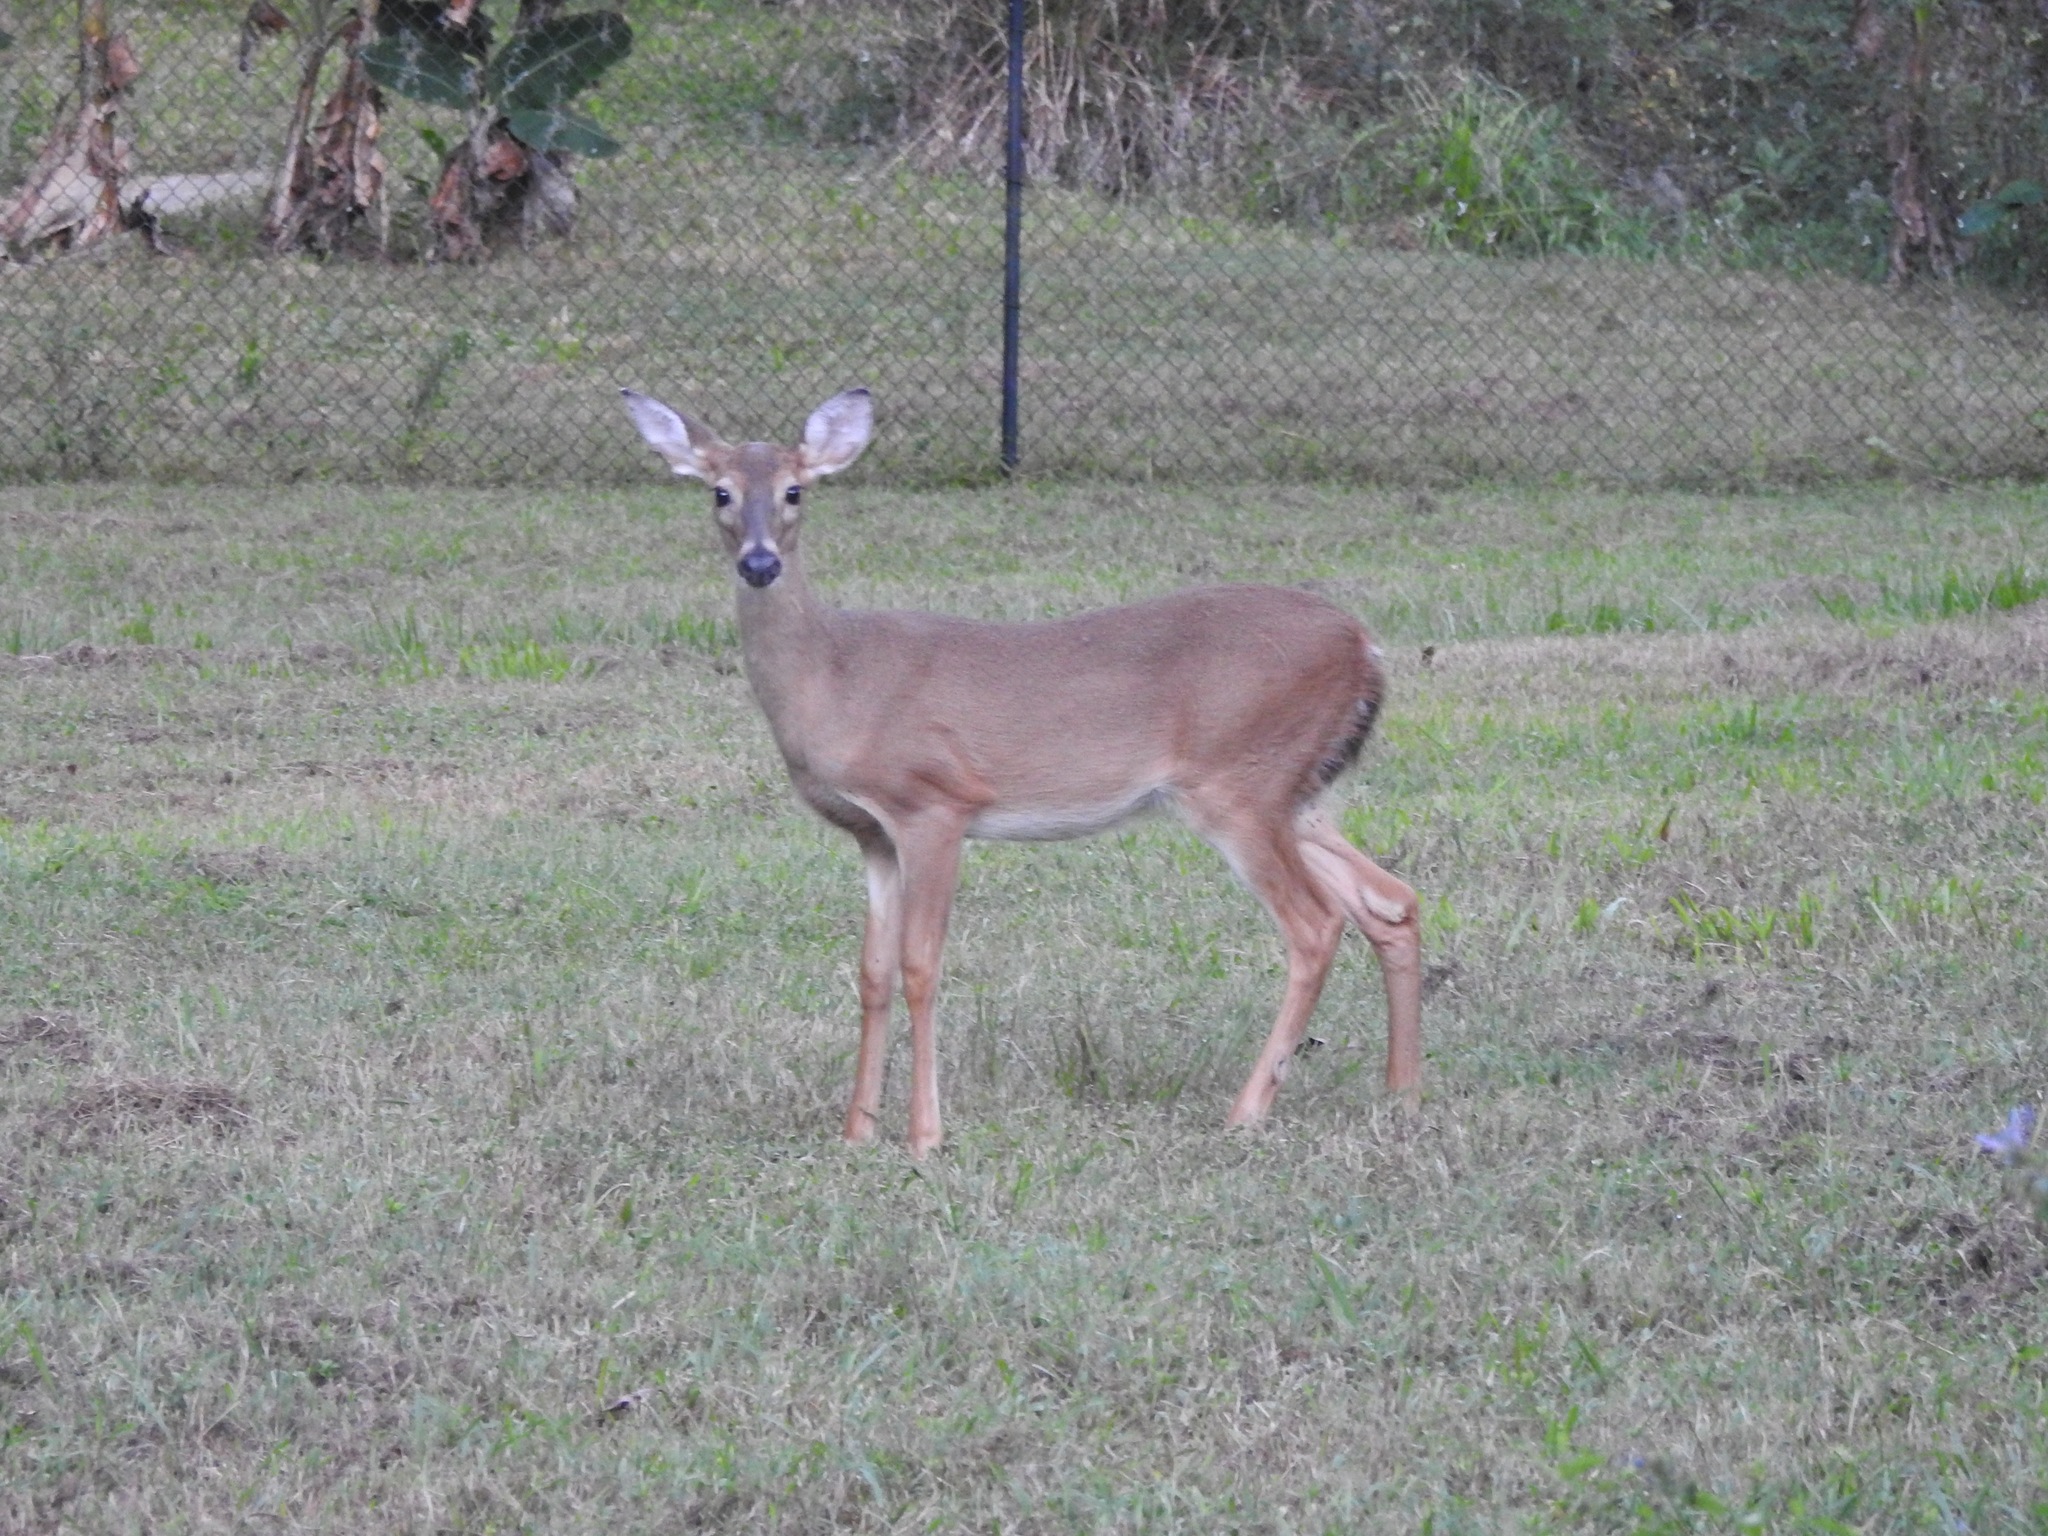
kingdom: Animalia
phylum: Chordata
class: Mammalia
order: Artiodactyla
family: Cervidae
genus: Odocoileus
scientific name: Odocoileus virginianus
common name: White-tailed deer
